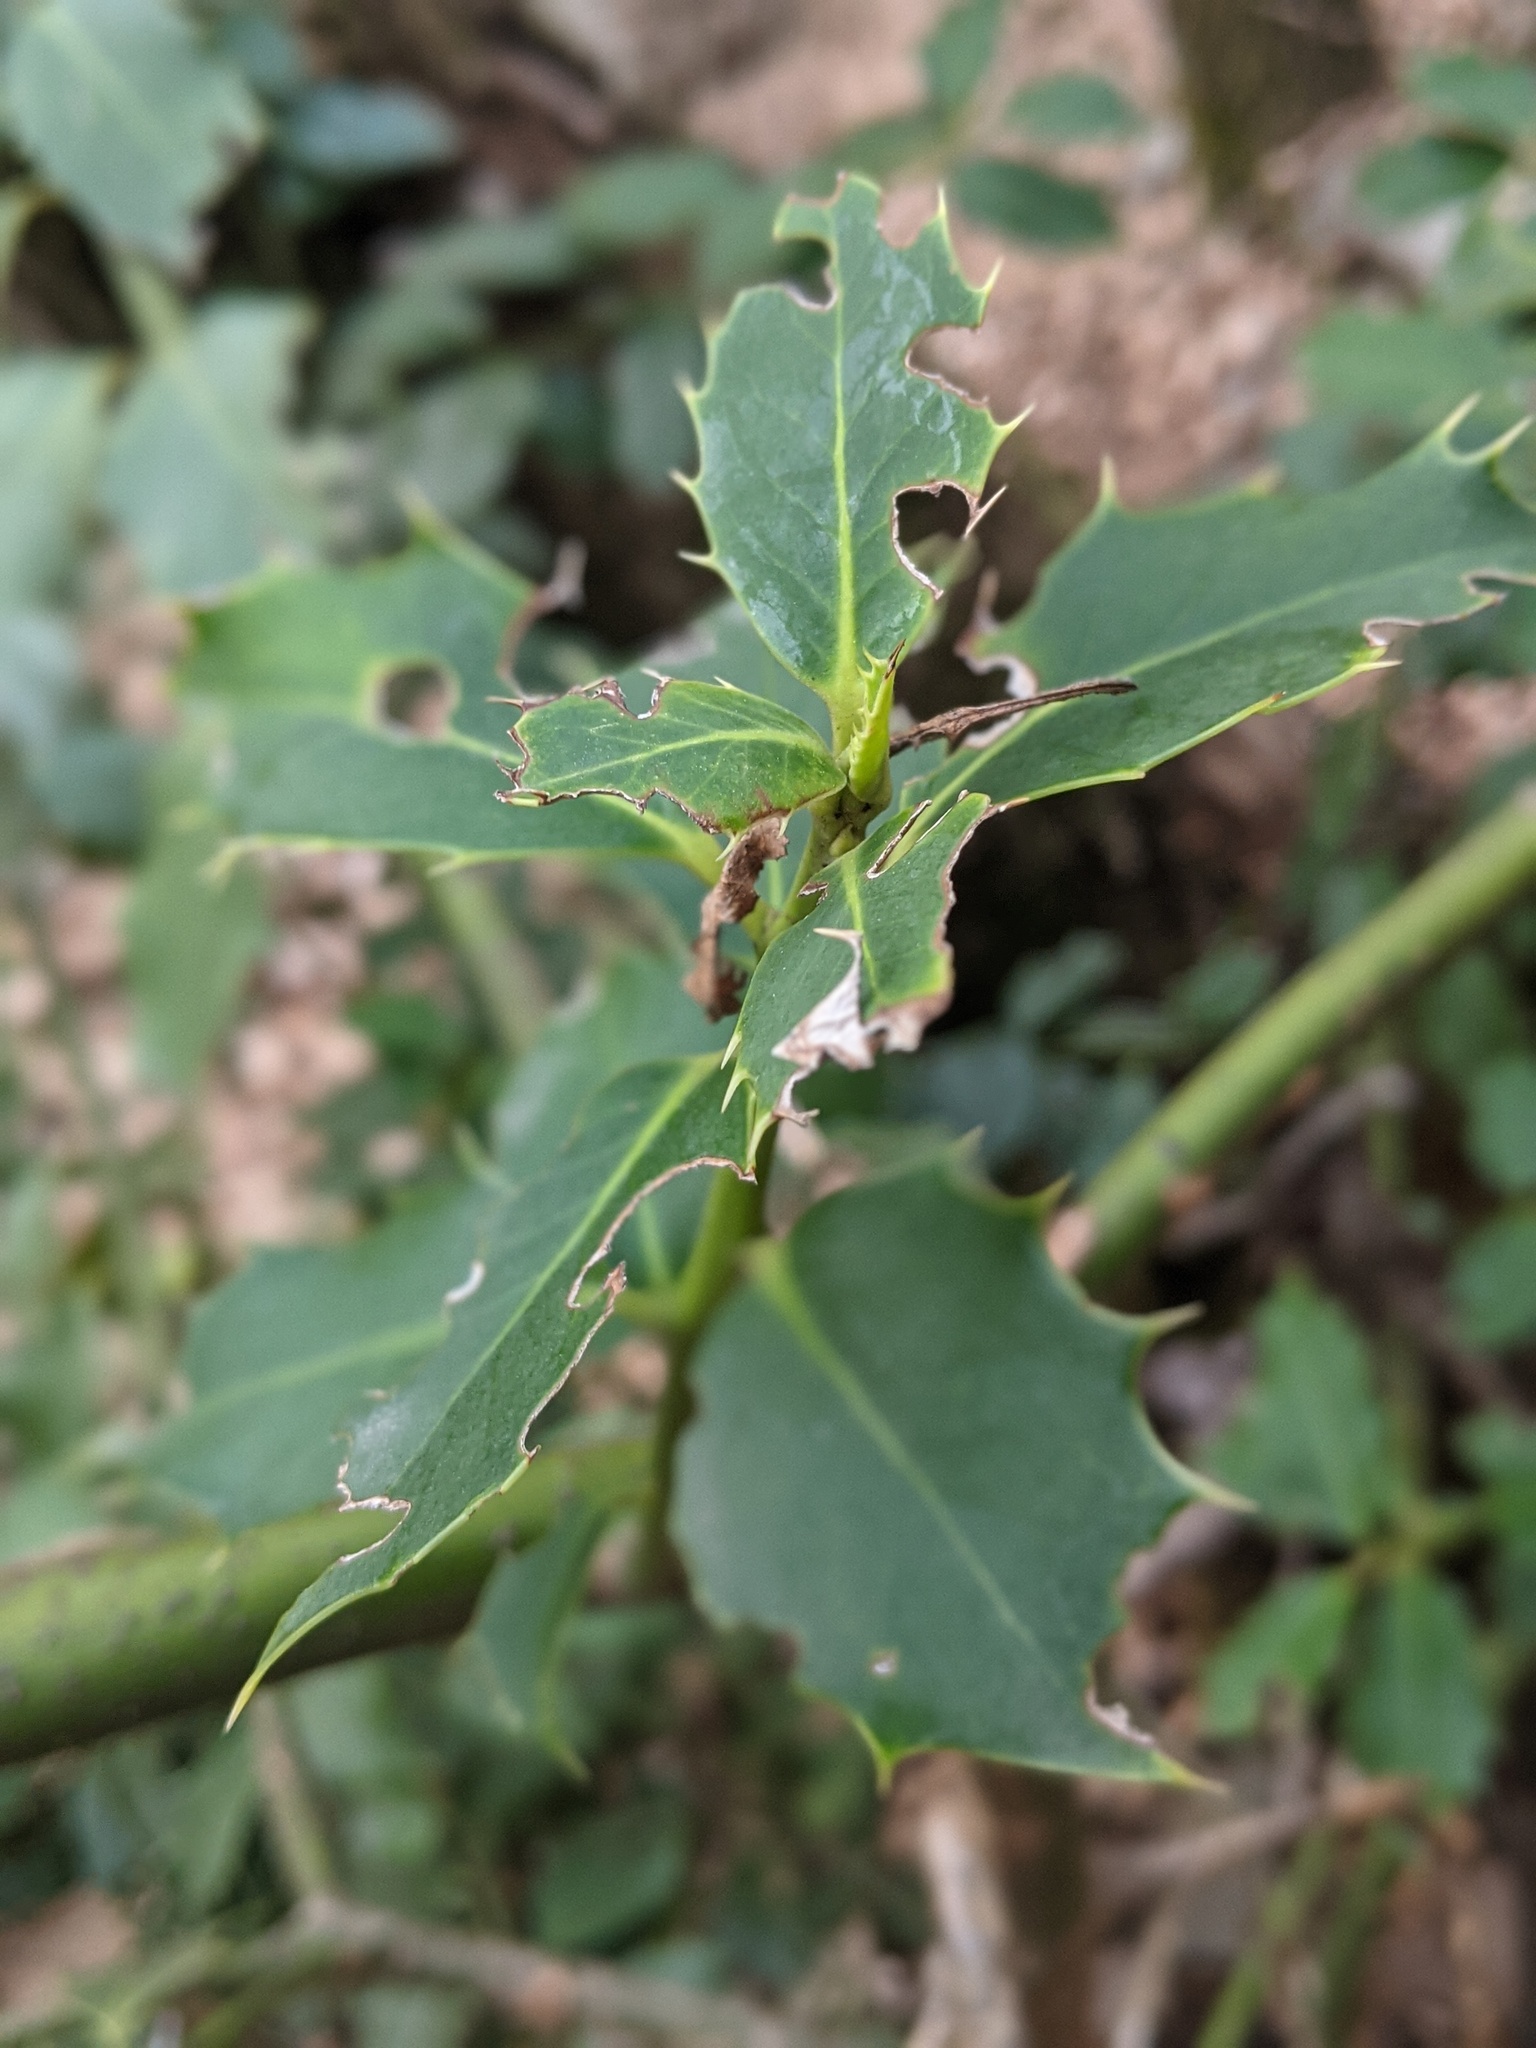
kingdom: Plantae
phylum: Tracheophyta
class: Magnoliopsida
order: Aquifoliales
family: Aquifoliaceae
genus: Ilex
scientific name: Ilex aquifolium
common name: English holly
